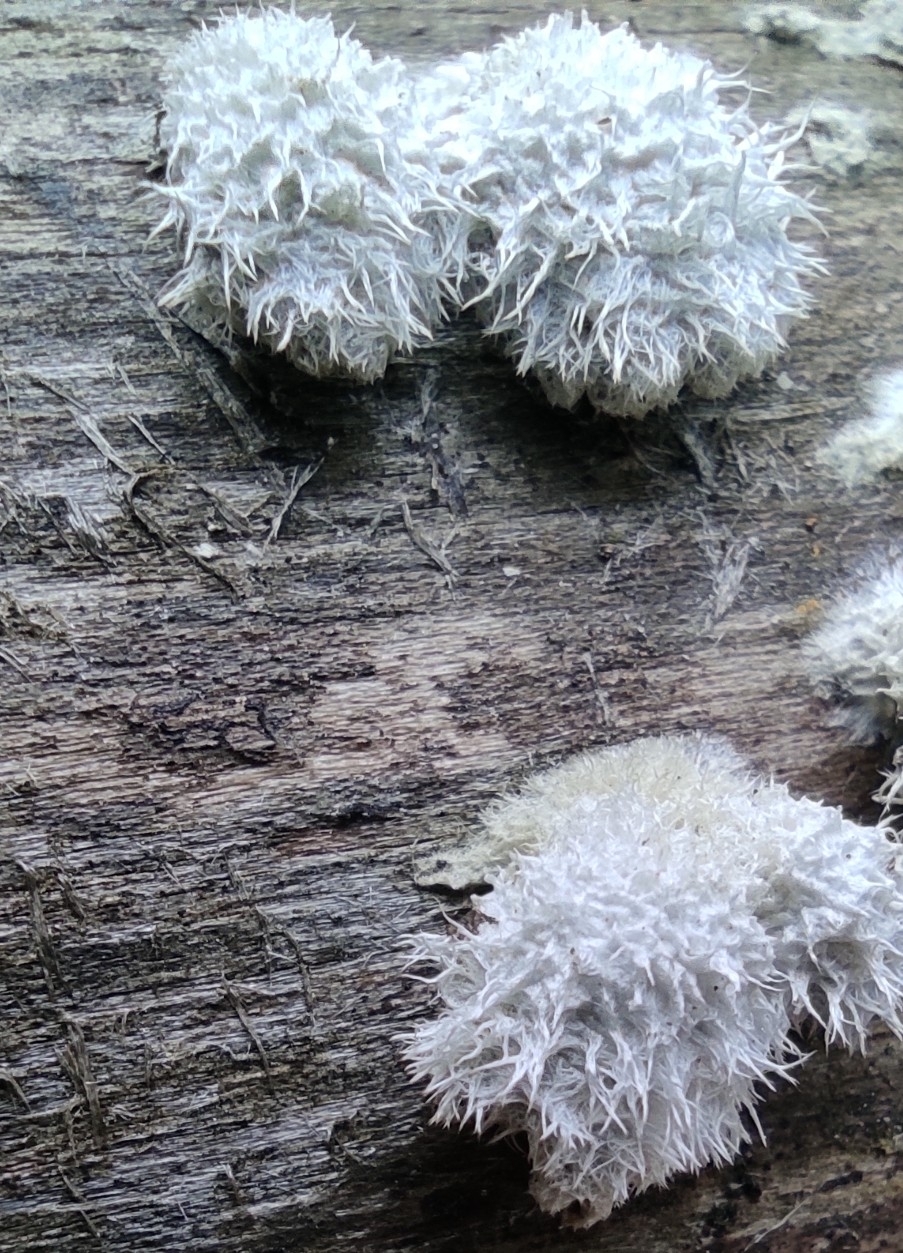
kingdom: Fungi
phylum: Basidiomycota
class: Agaricomycetes
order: Agaricales
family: Schizophyllaceae
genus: Schizophyllum
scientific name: Schizophyllum commune
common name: Common porecrust
